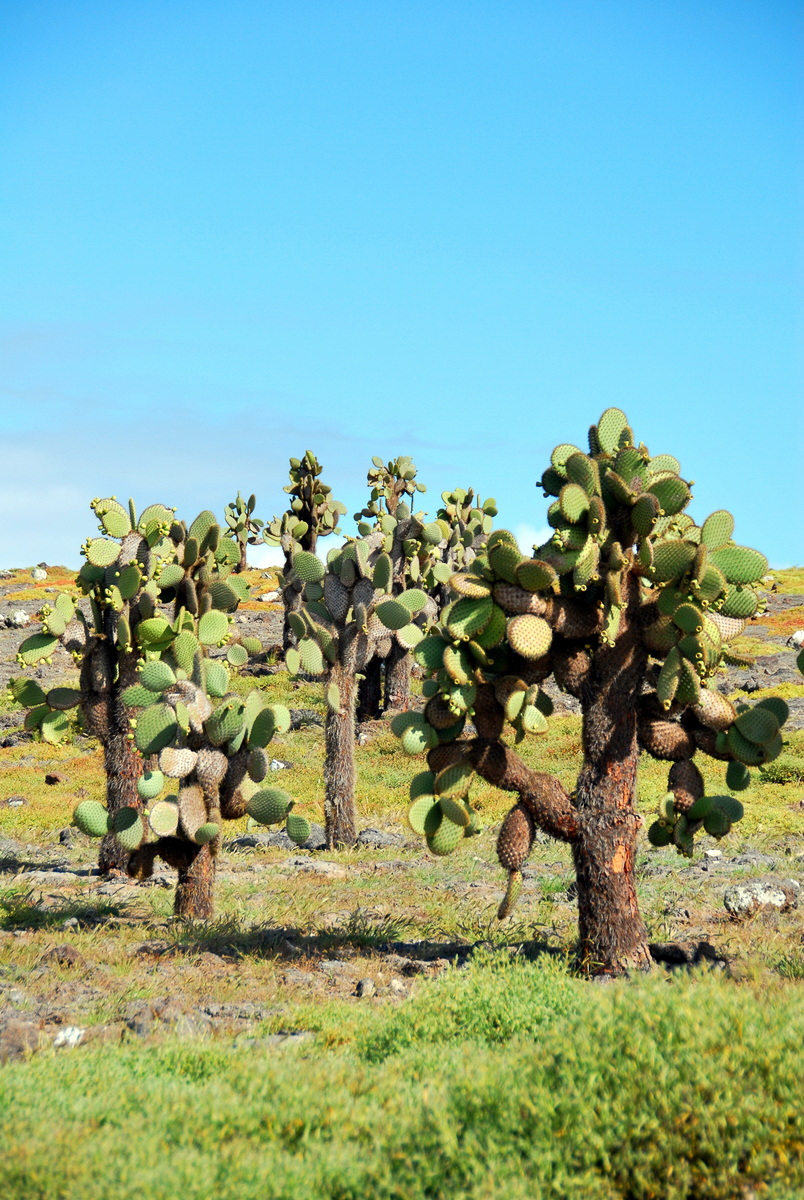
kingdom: Plantae
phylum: Tracheophyta
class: Magnoliopsida
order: Caryophyllales
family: Cactaceae
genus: Opuntia
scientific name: Opuntia galapageia
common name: Galápagos prickly pear
